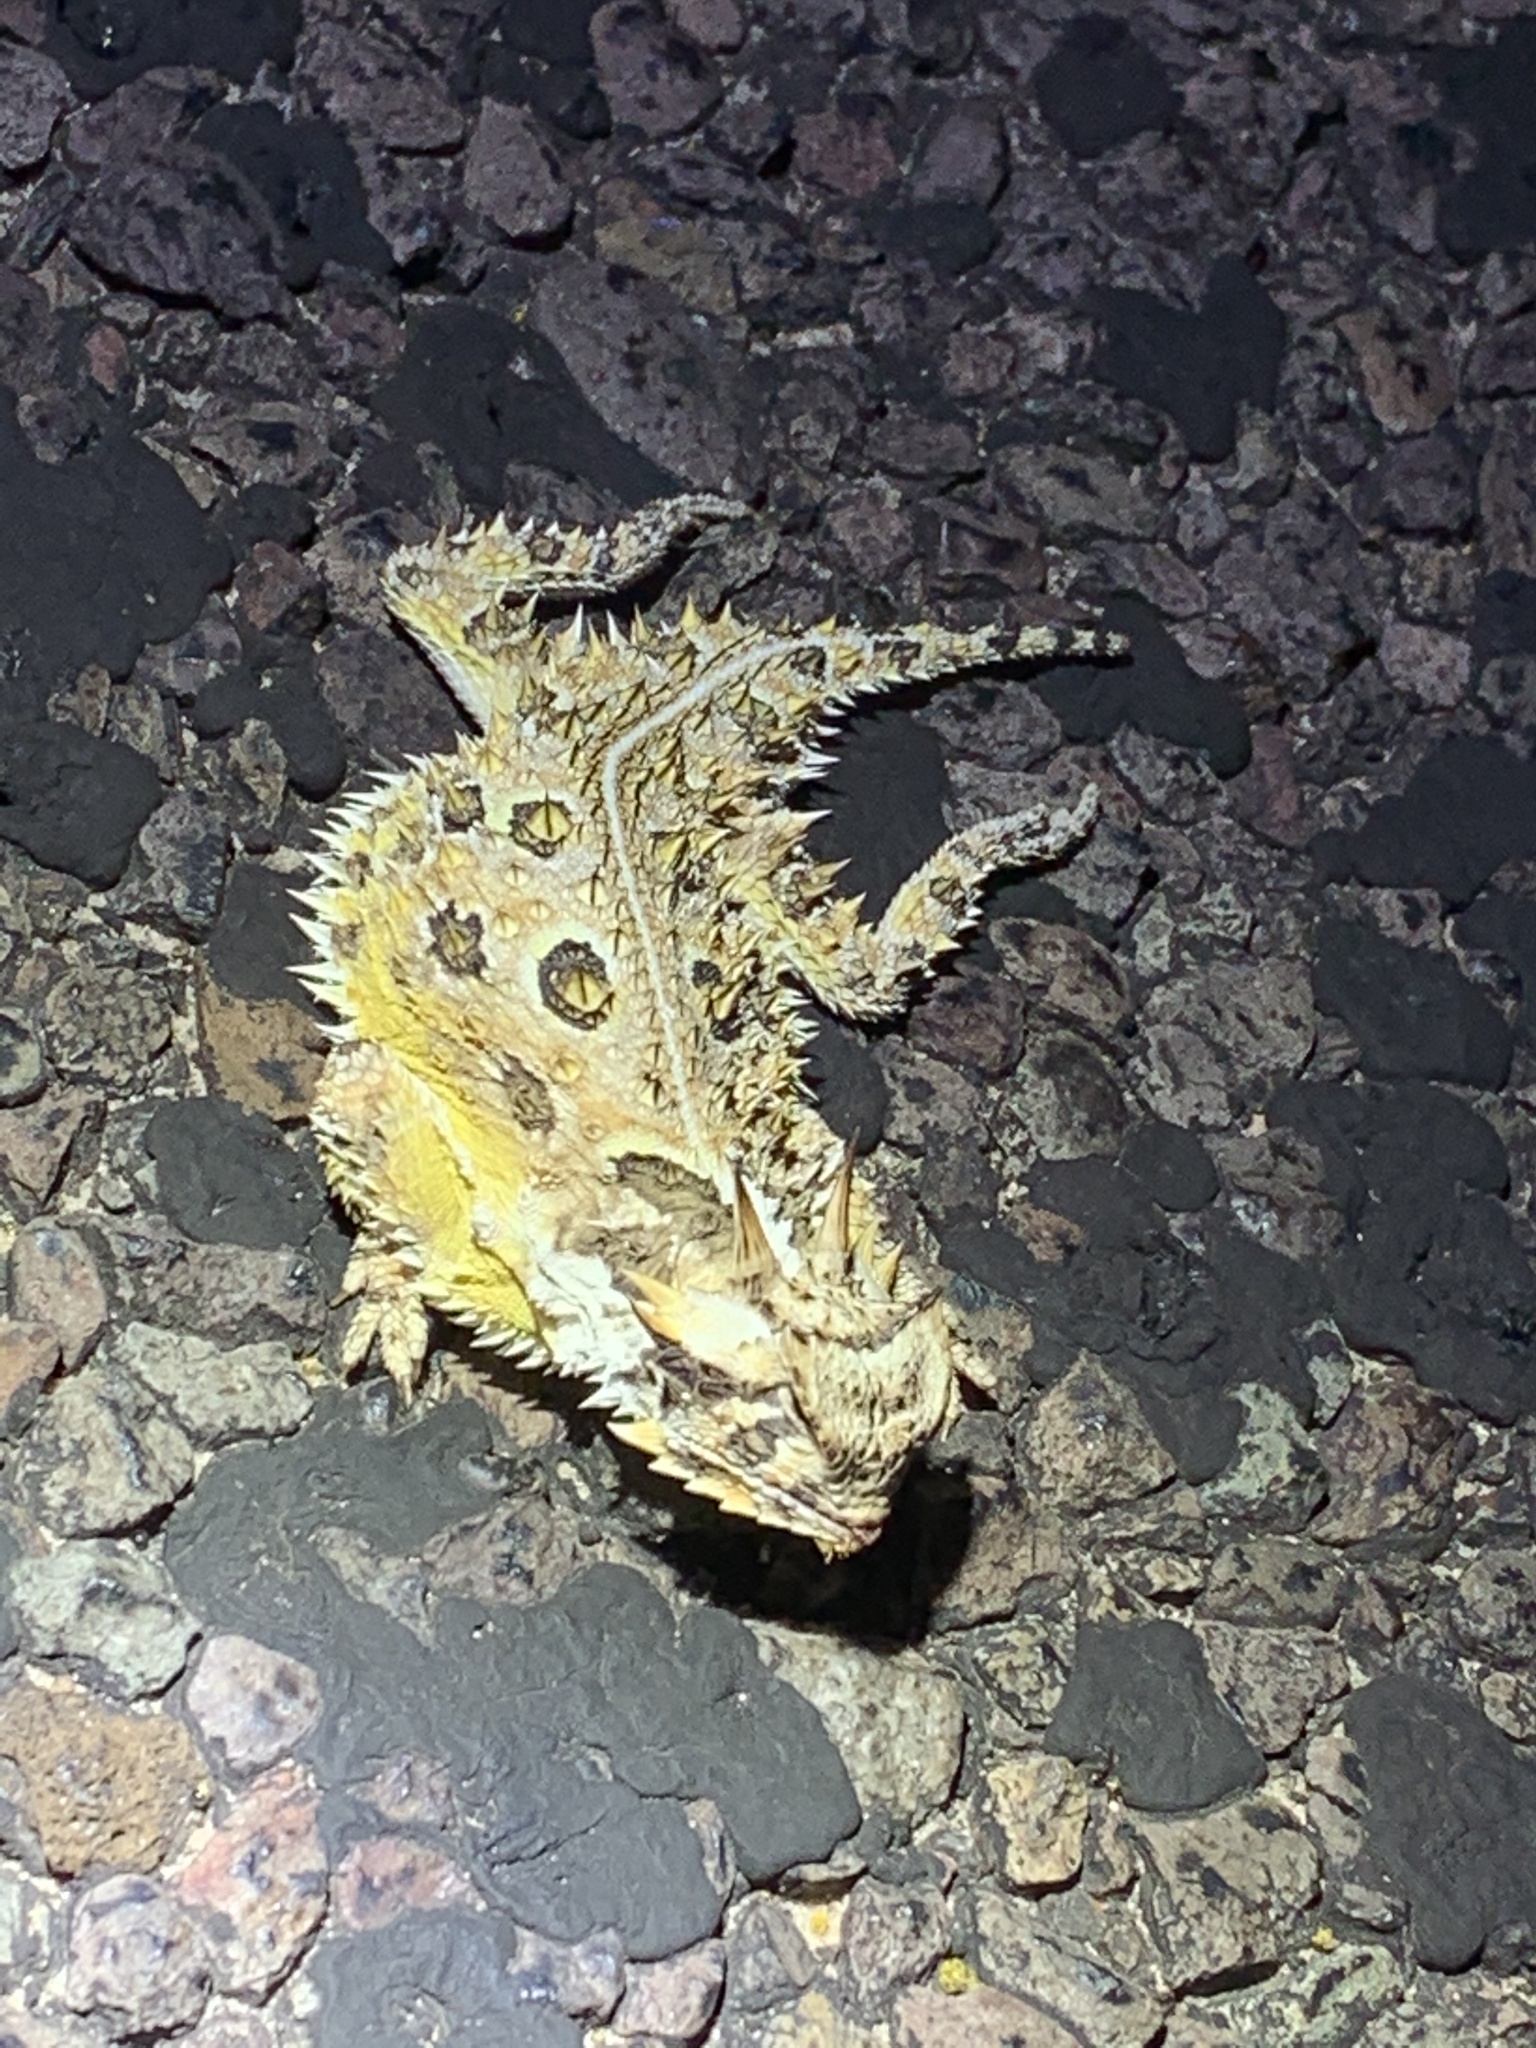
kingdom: Animalia
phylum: Chordata
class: Squamata
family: Phrynosomatidae
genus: Phrynosoma
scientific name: Phrynosoma cornutum
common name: Texas horned lizard
